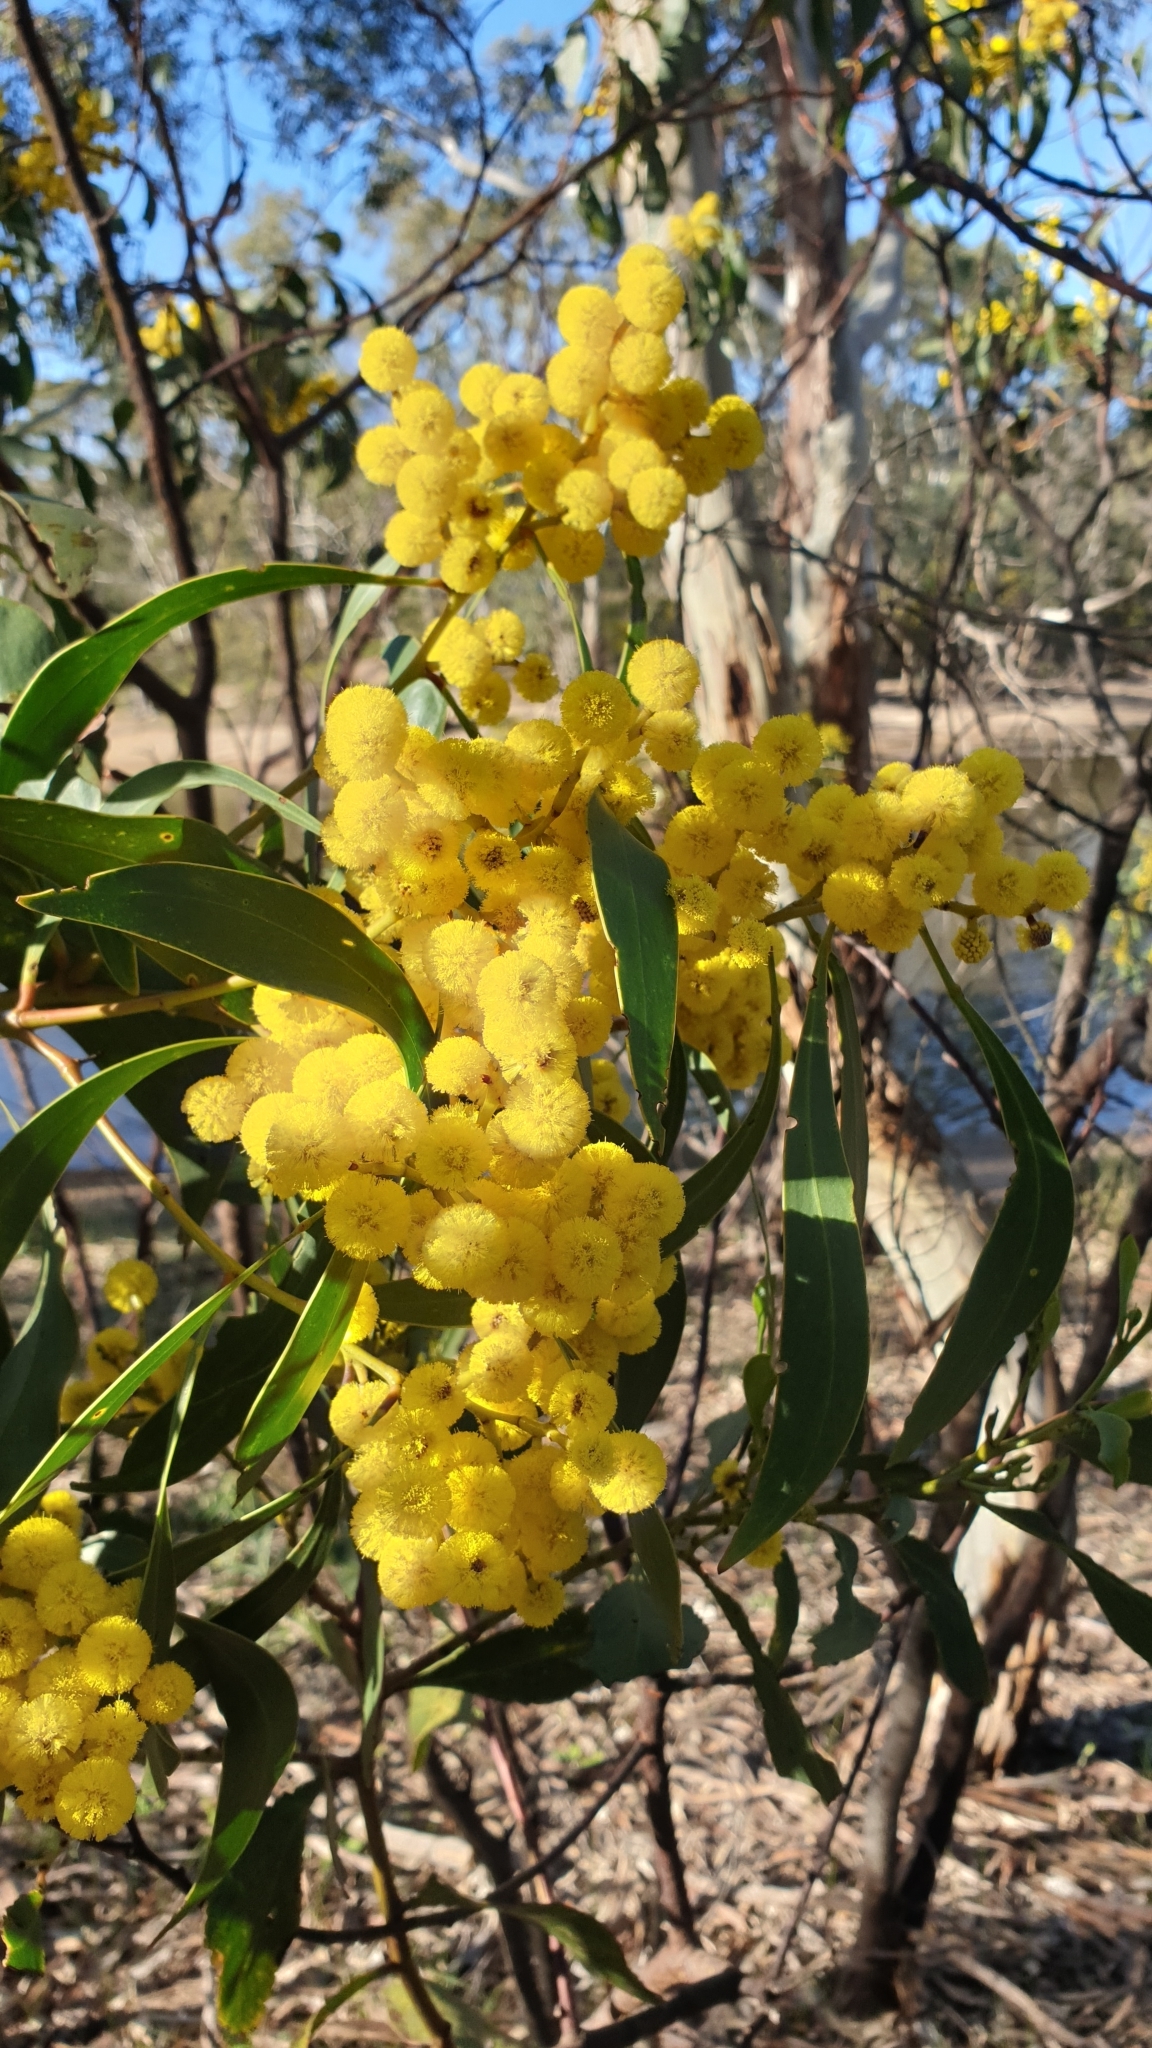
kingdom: Plantae
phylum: Tracheophyta
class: Magnoliopsida
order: Fabales
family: Fabaceae
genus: Acacia
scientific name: Acacia pycnantha
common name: Golden wattle
